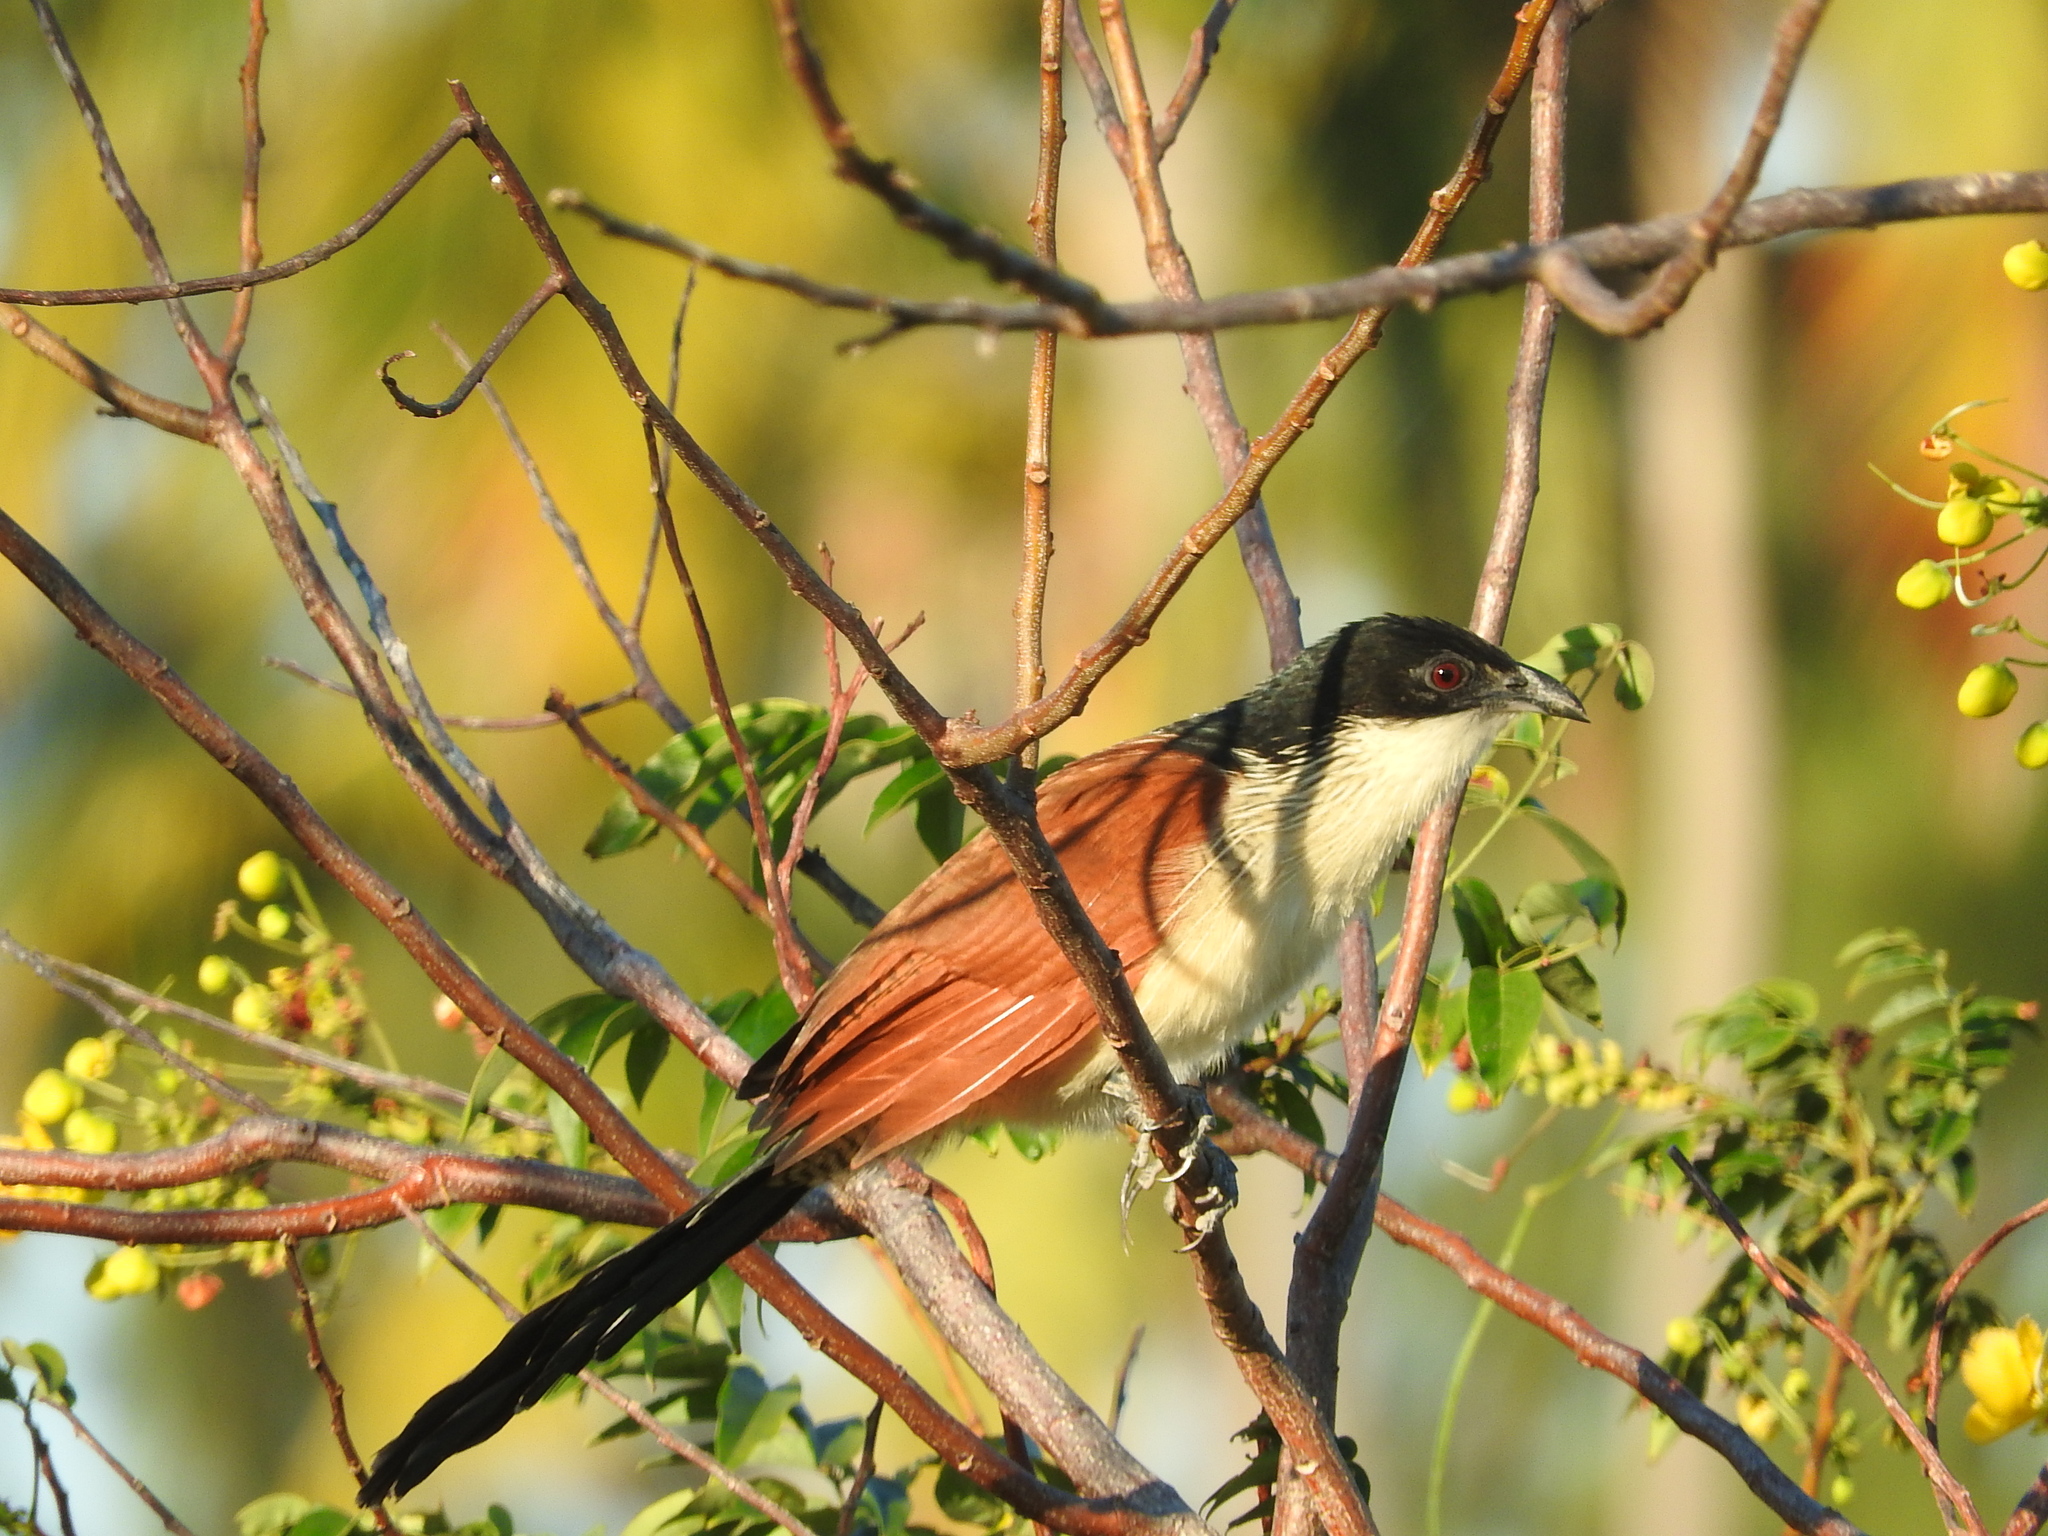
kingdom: Animalia
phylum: Chordata
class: Aves
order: Cuculiformes
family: Cuculidae
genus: Centropus
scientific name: Centropus superciliosus
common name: White-browed coucal
